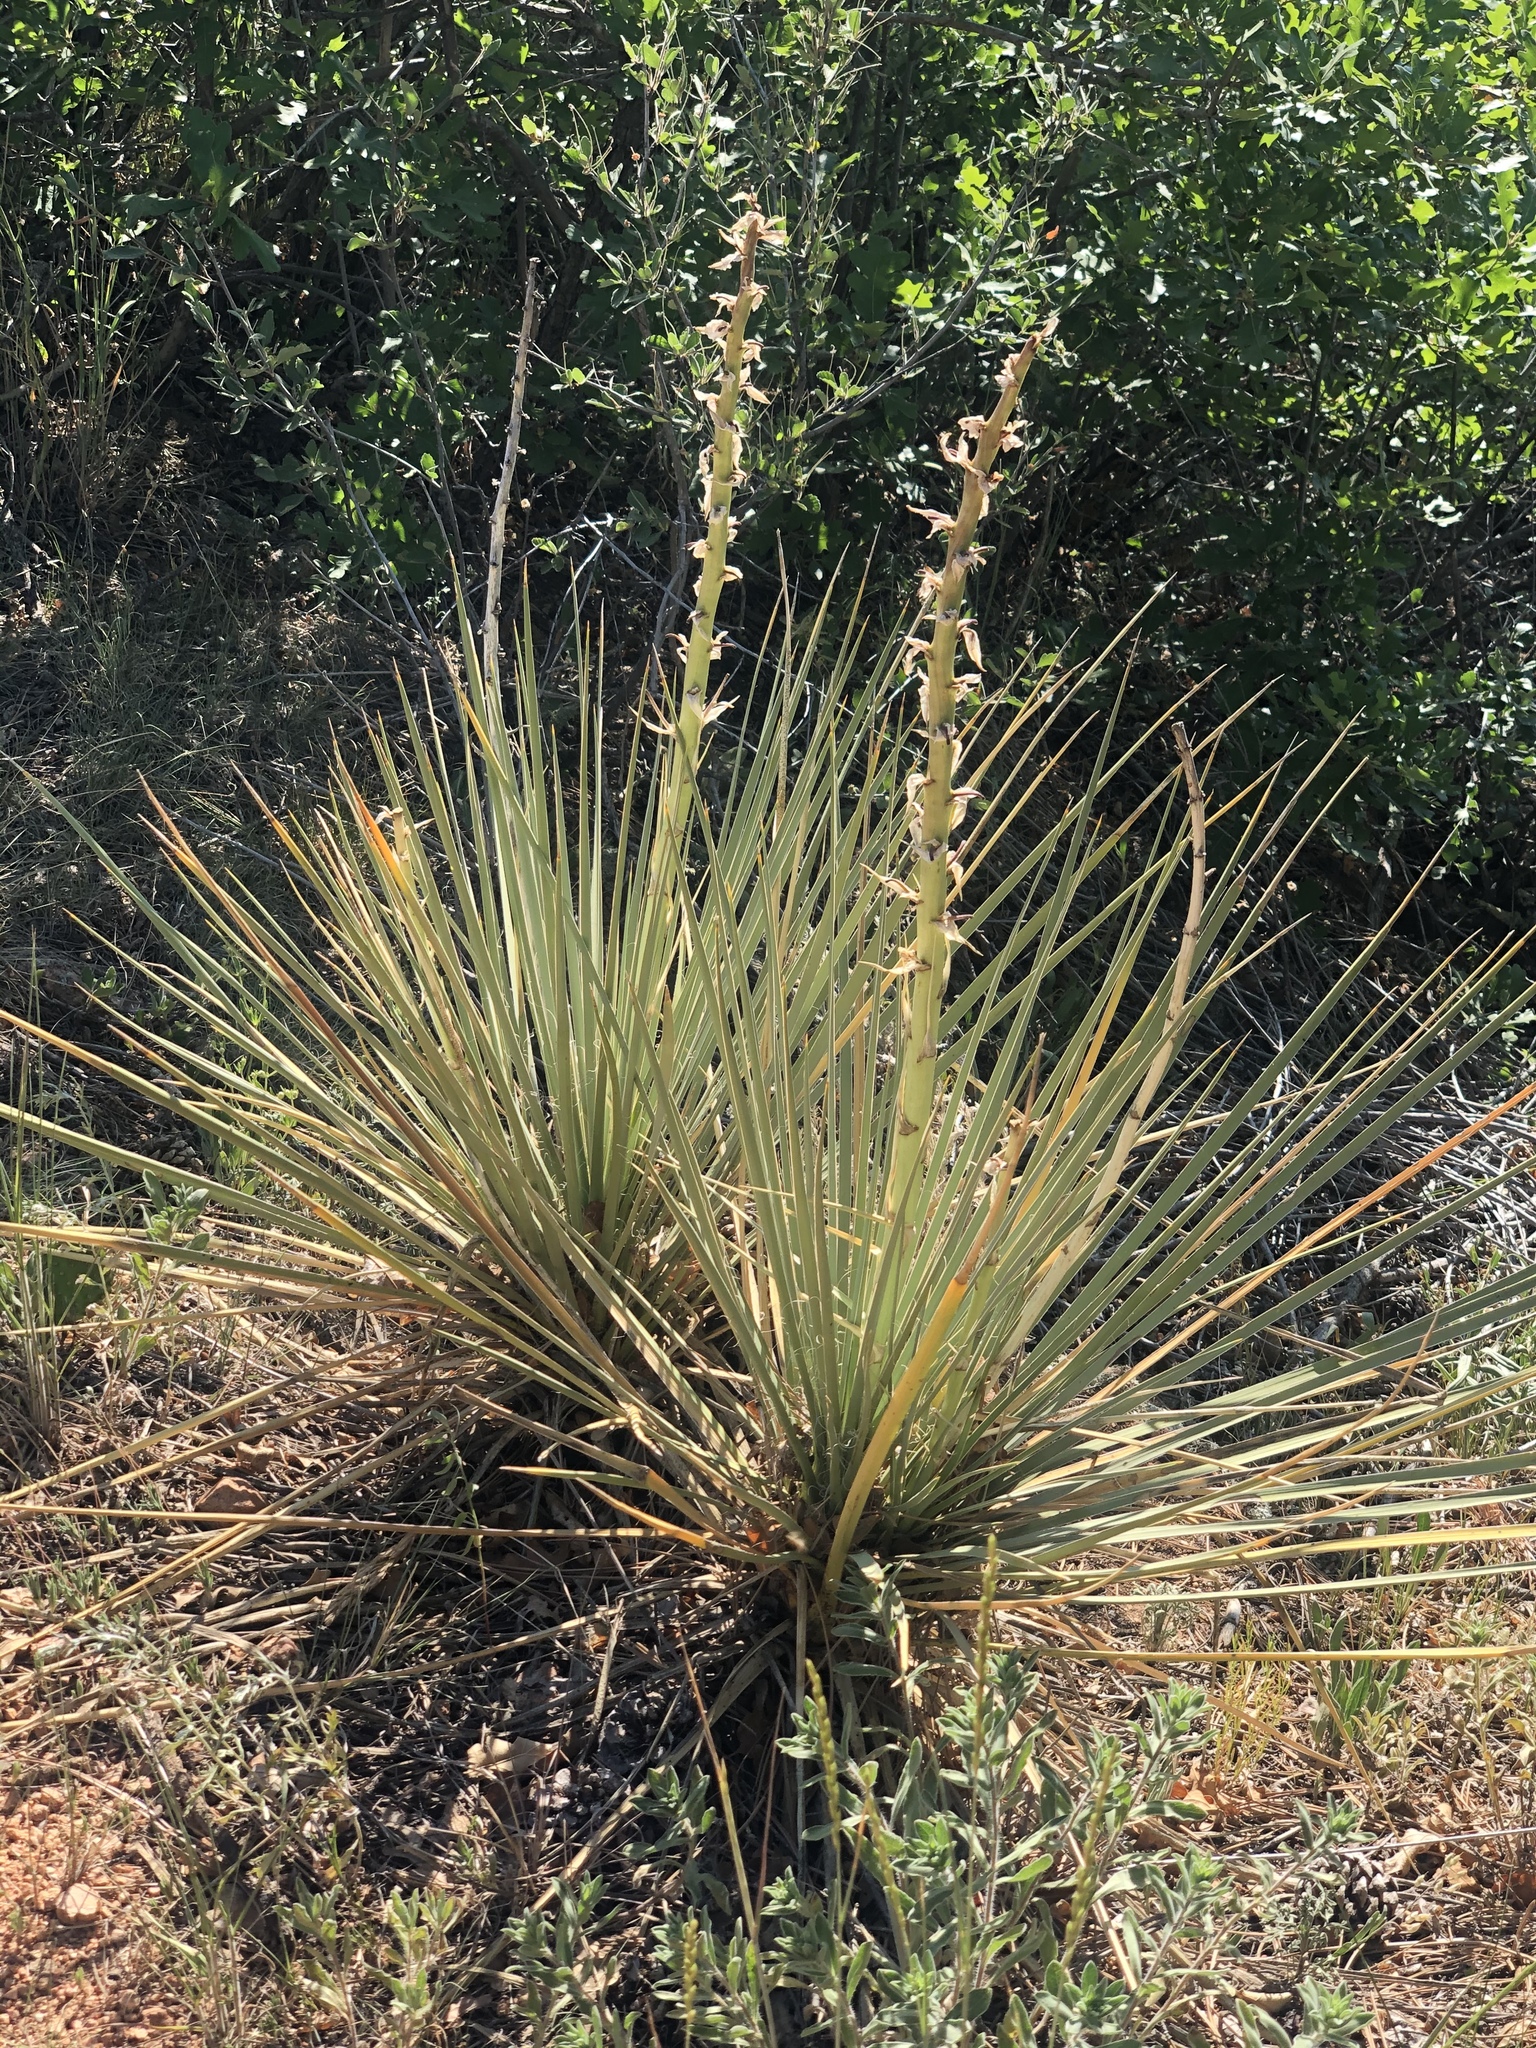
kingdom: Plantae
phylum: Tracheophyta
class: Liliopsida
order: Asparagales
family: Asparagaceae
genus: Yucca
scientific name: Yucca glauca
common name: Great plains yucca
